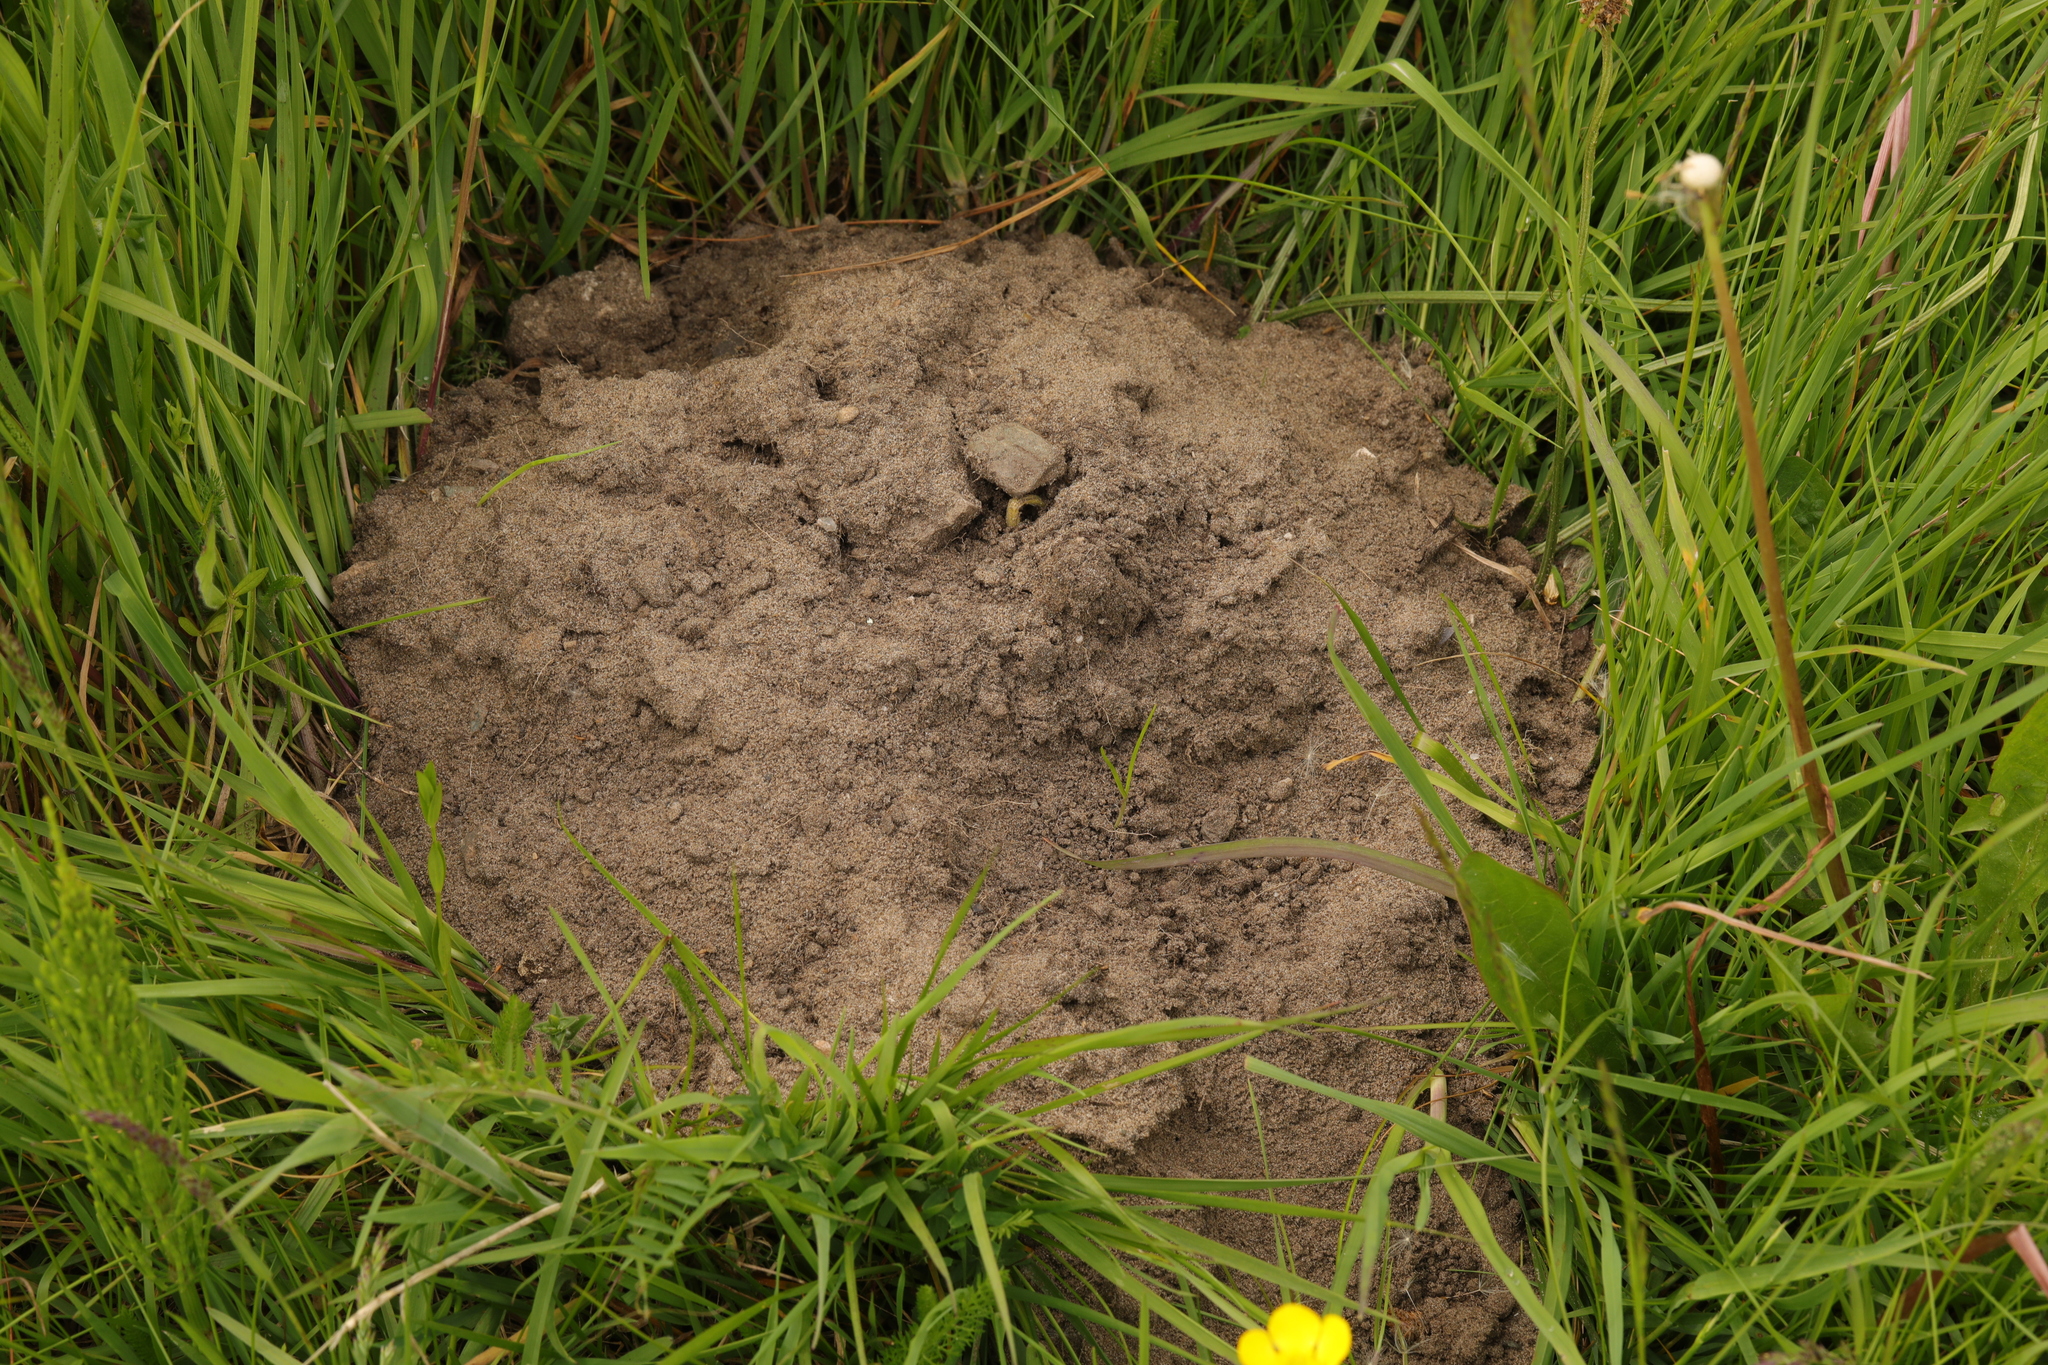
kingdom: Animalia
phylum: Chordata
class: Mammalia
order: Soricomorpha
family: Talpidae
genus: Talpa
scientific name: Talpa europaea
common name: European mole
